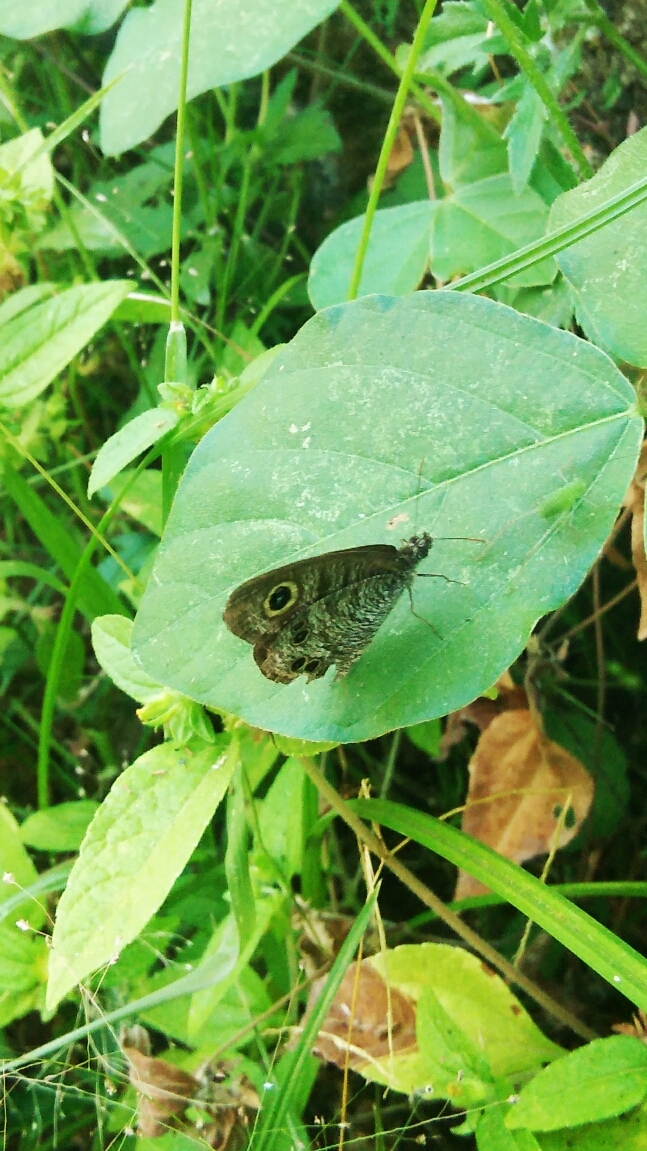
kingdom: Animalia
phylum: Arthropoda
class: Insecta
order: Lepidoptera
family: Nymphalidae
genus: Ypthima
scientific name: Ypthima baldus
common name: Common five-ring
